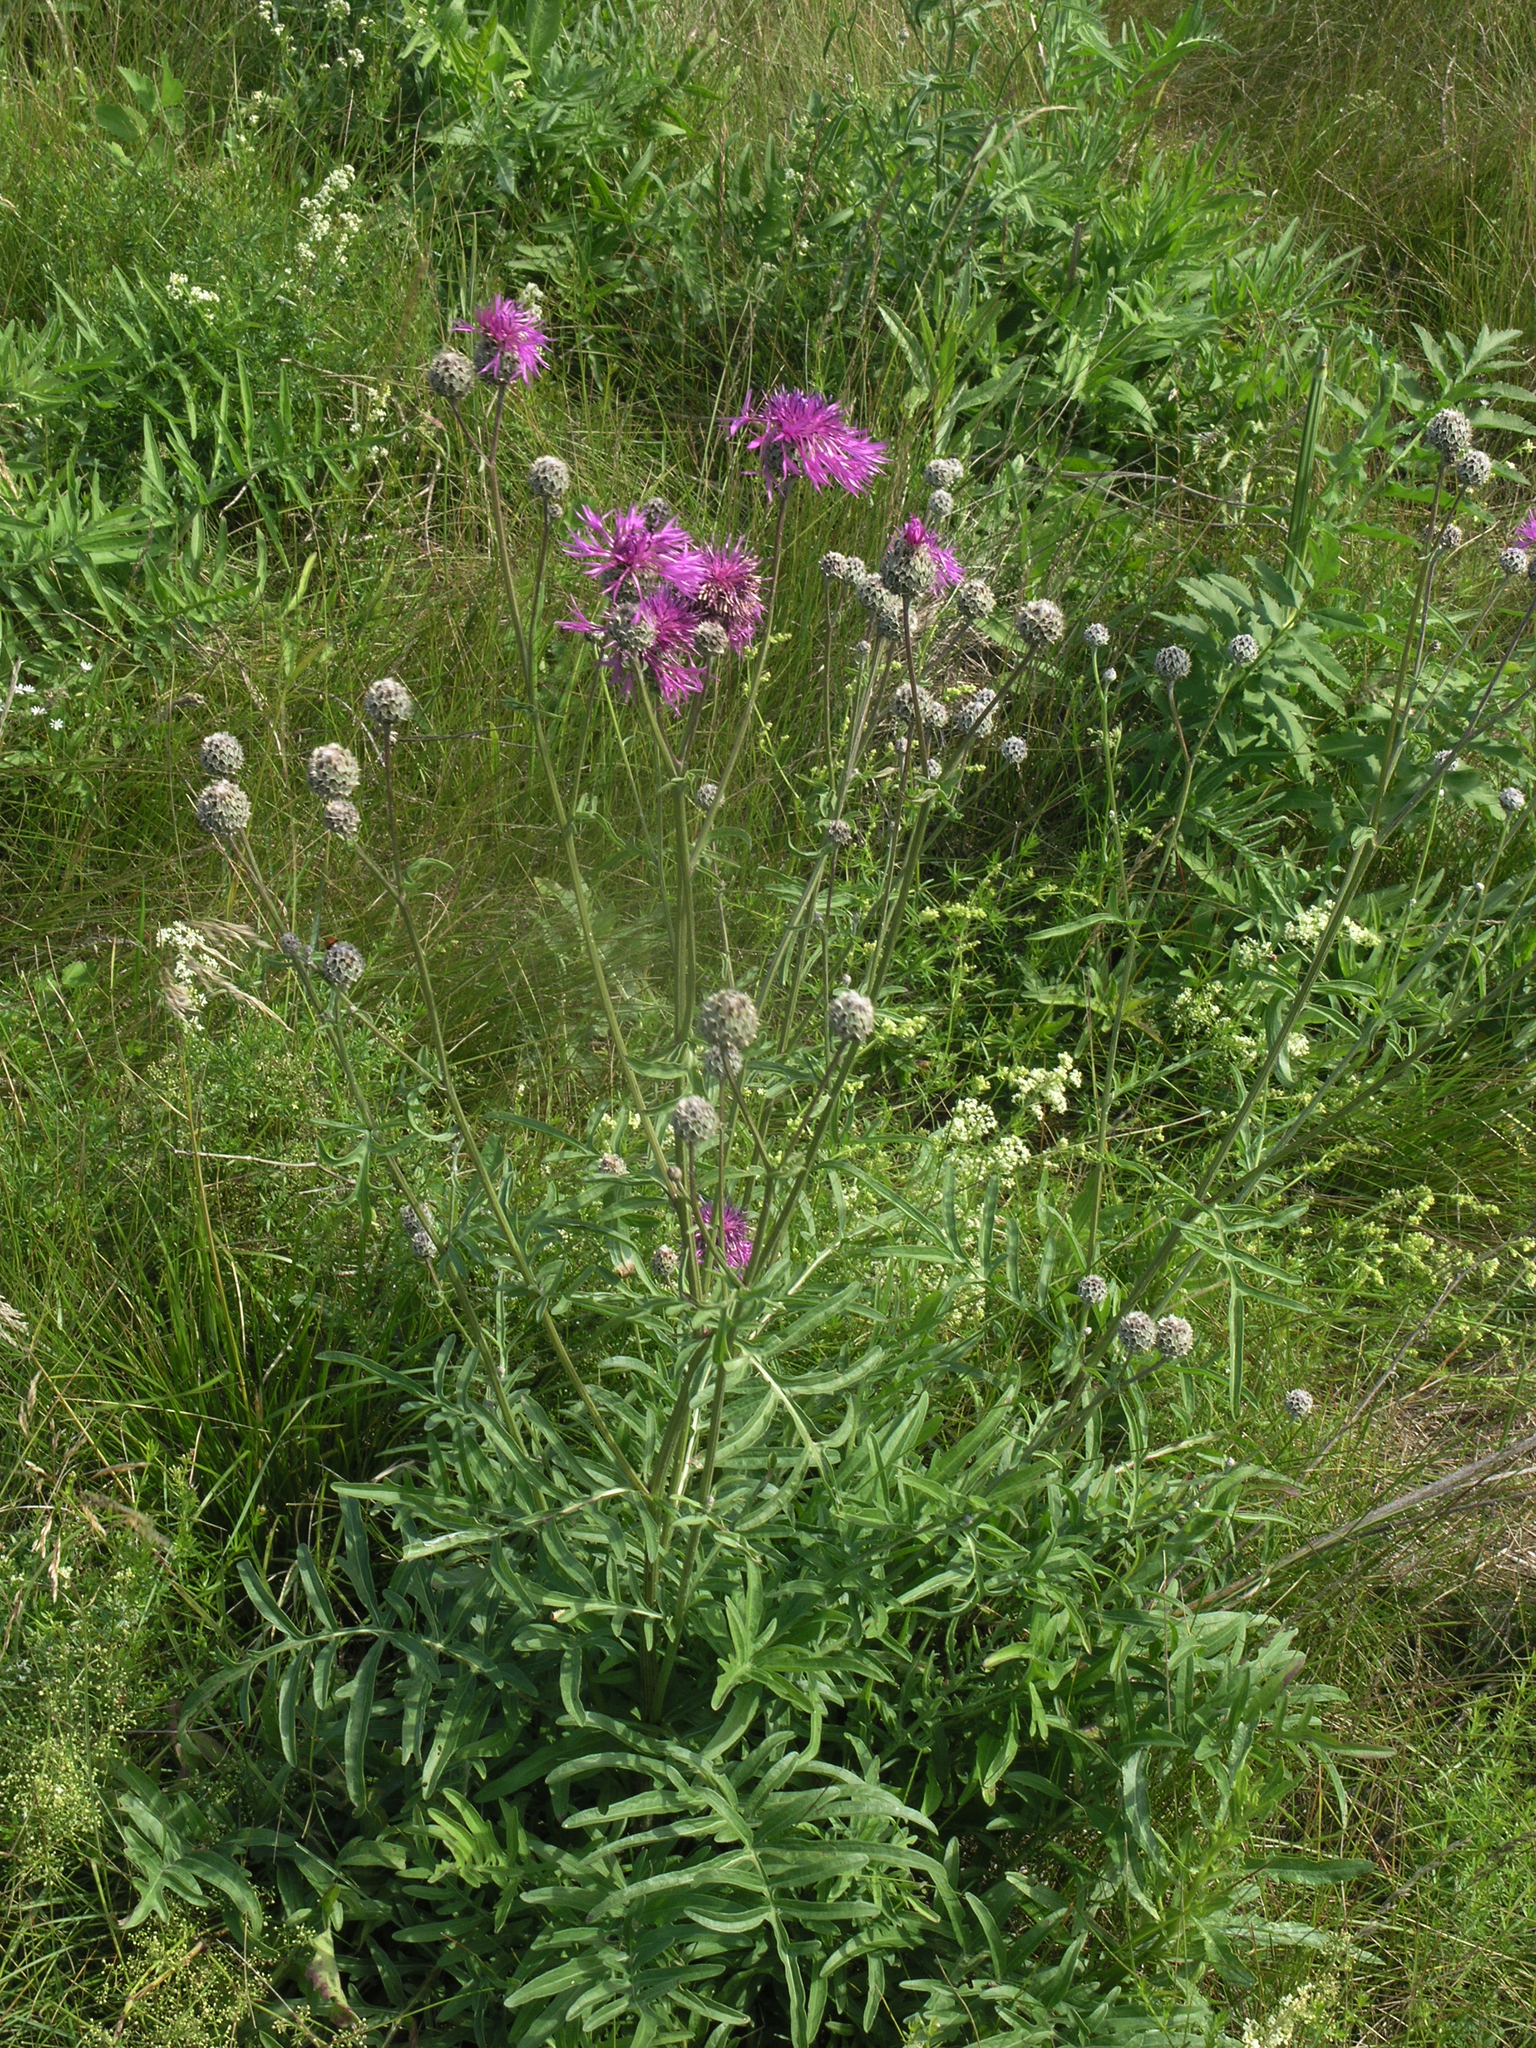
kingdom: Plantae
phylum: Tracheophyta
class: Magnoliopsida
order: Asterales
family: Asteraceae
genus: Centaurea
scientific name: Centaurea scabiosa
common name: Greater knapweed
